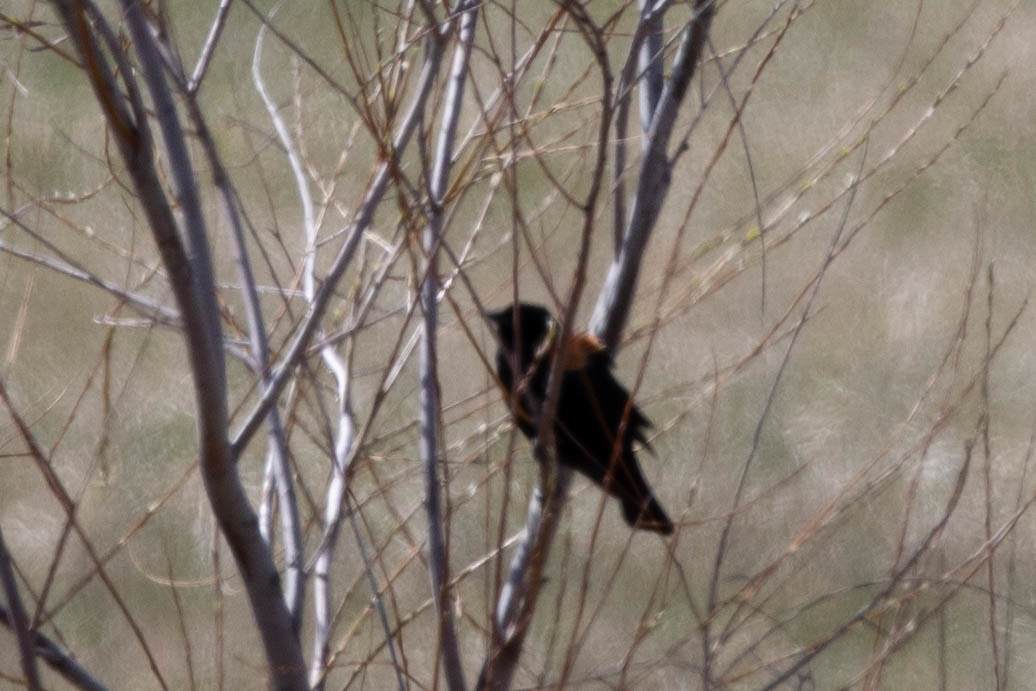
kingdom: Animalia
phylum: Chordata
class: Aves
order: Passeriformes
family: Icteridae
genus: Agelaius
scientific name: Agelaius phoeniceus
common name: Red-winged blackbird
